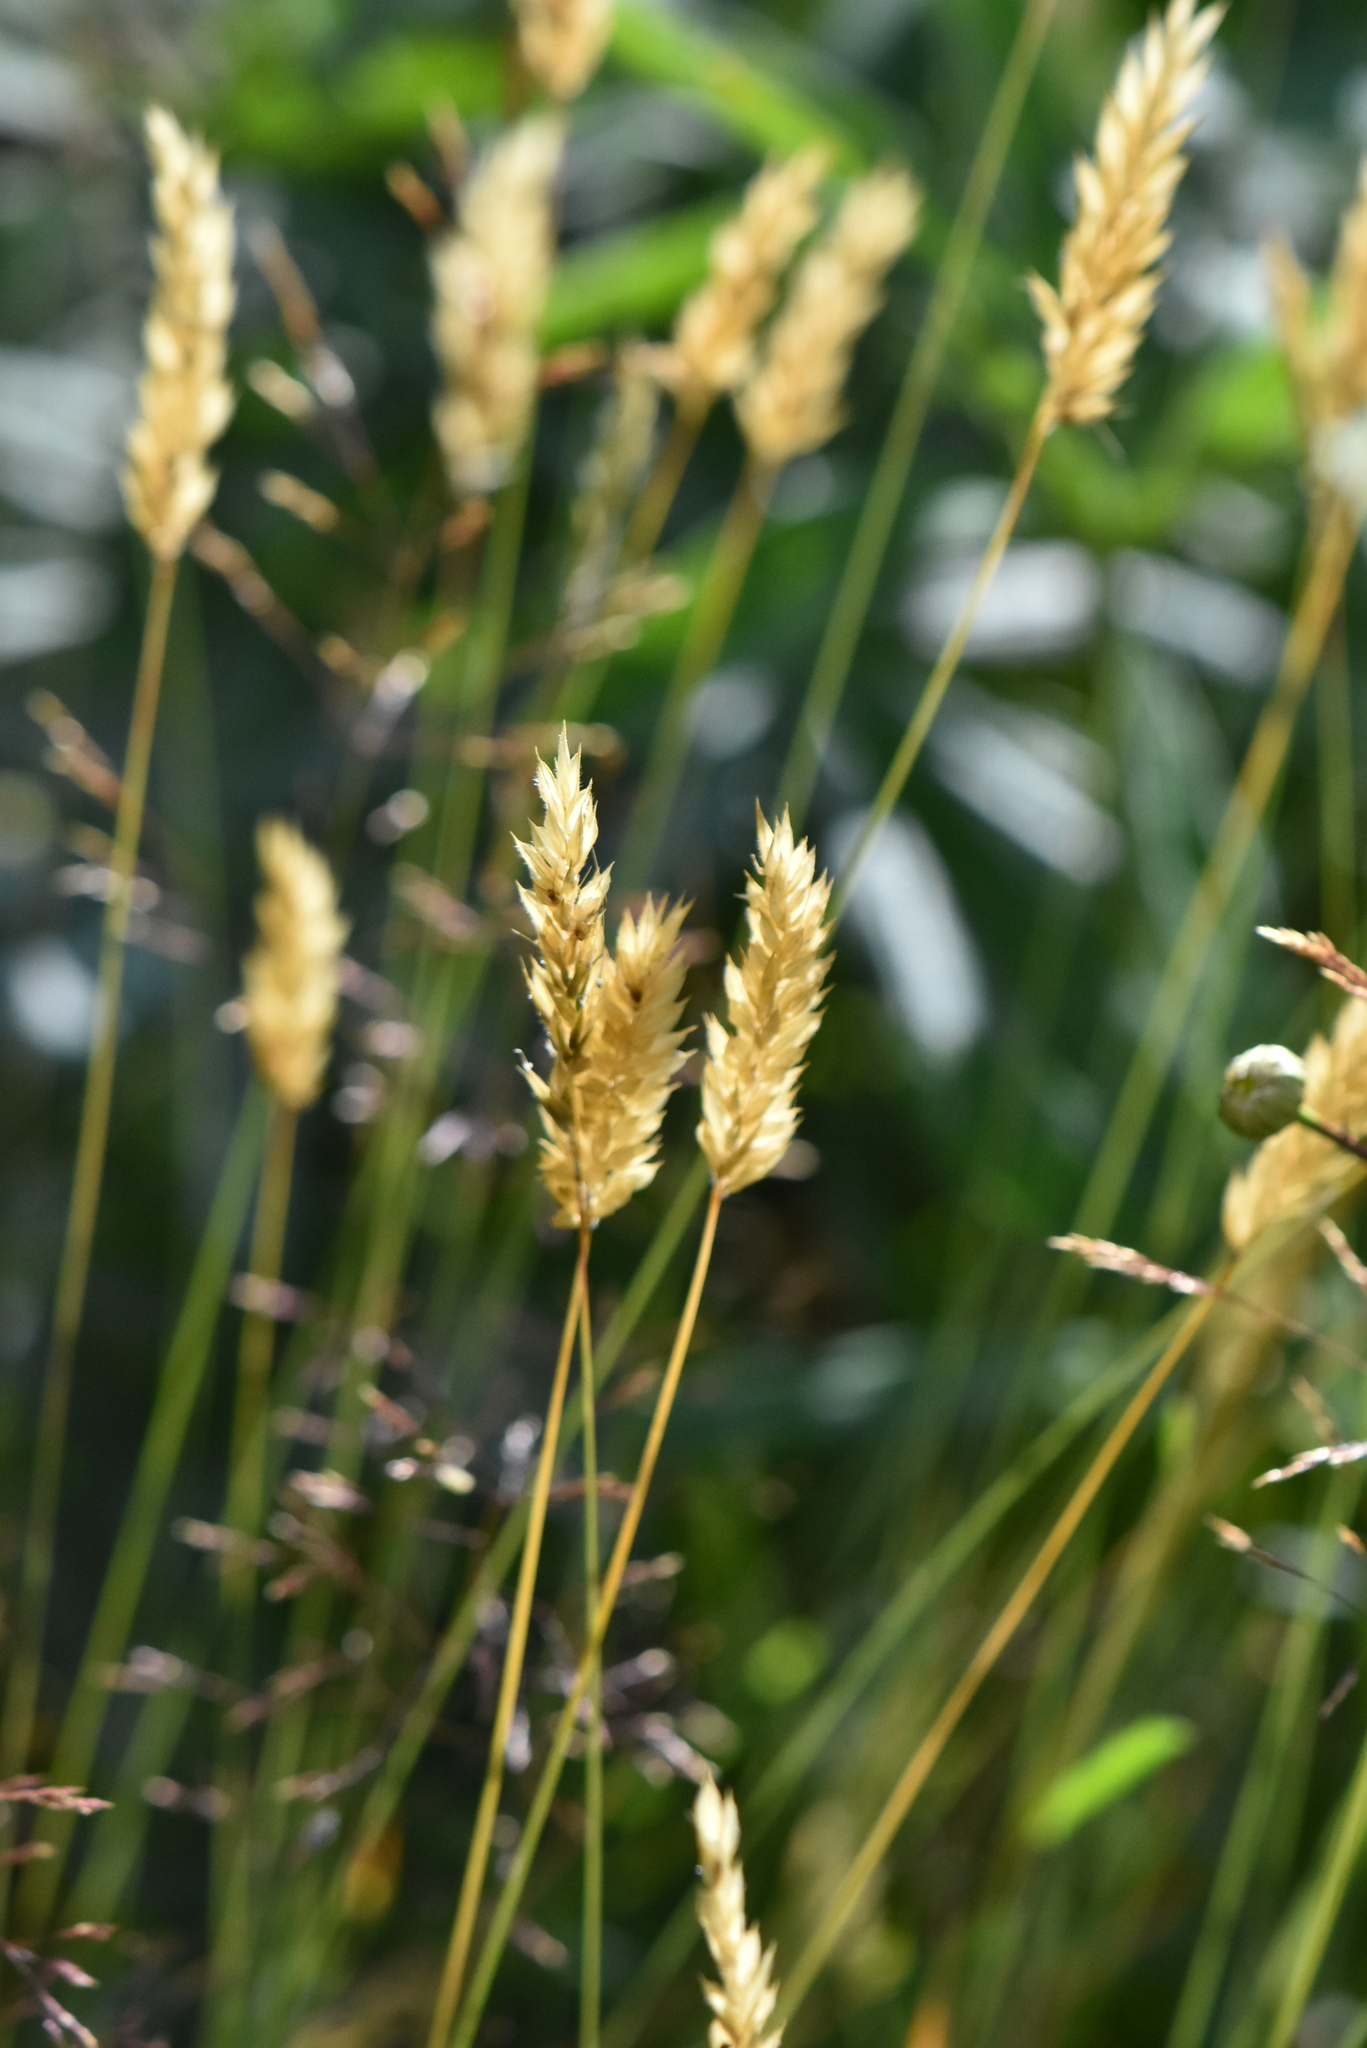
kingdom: Plantae
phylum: Tracheophyta
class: Liliopsida
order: Poales
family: Poaceae
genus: Anthoxanthum
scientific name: Anthoxanthum odoratum
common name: Sweet vernalgrass
